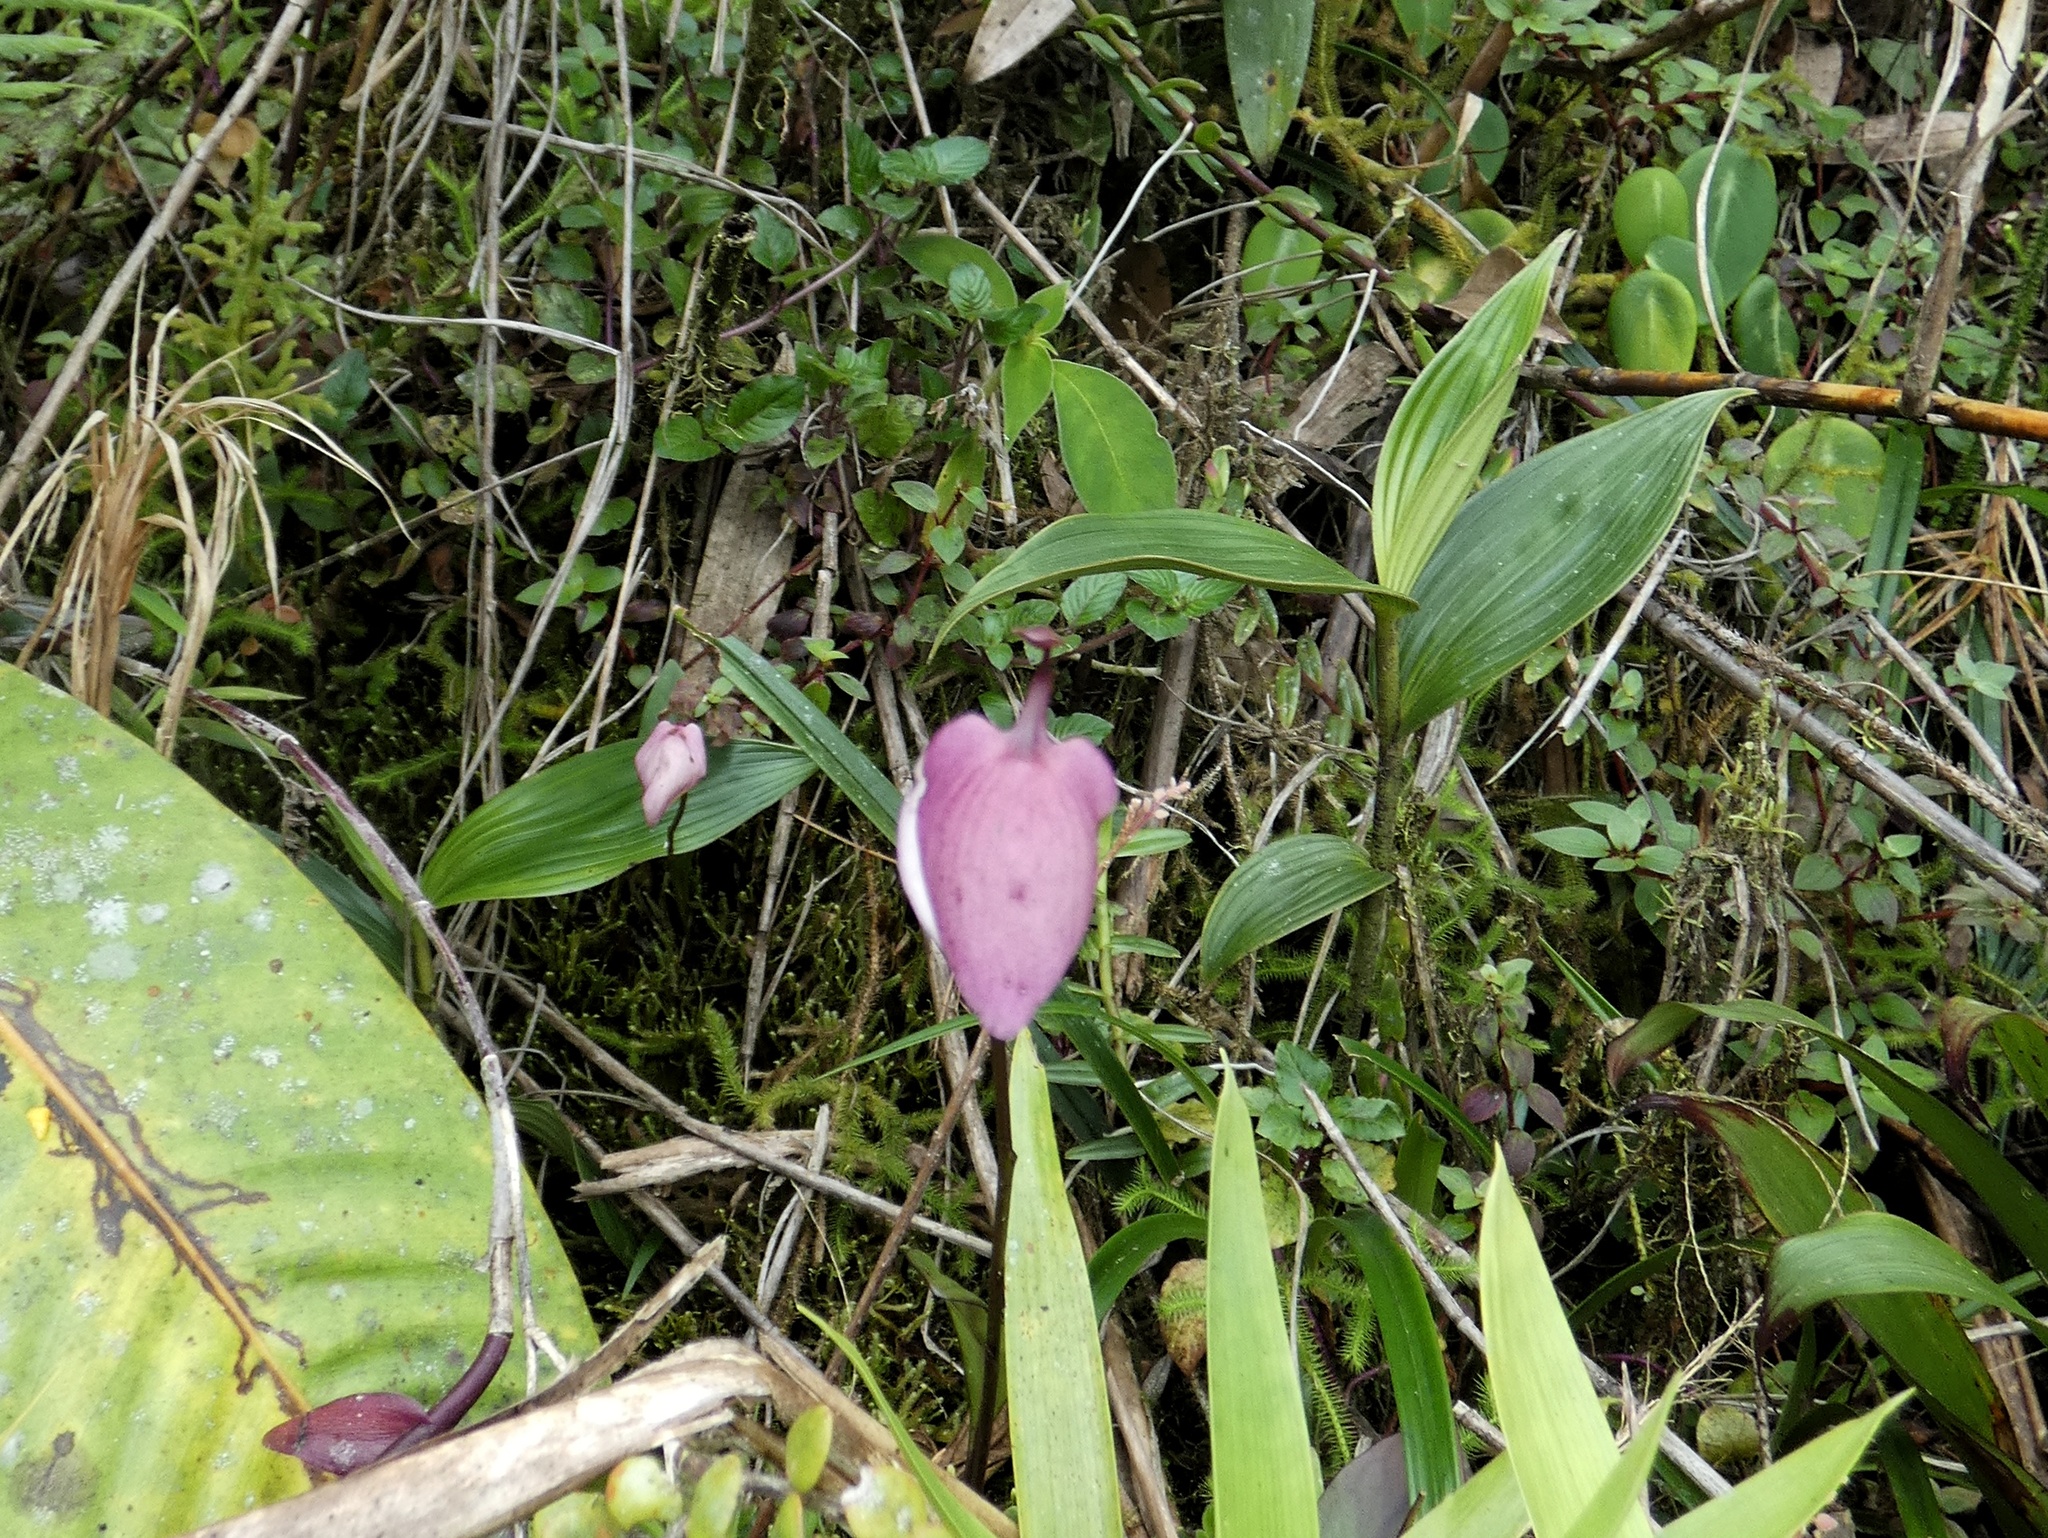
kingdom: Plantae
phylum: Tracheophyta
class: Magnoliopsida
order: Lamiales
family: Lentibulariaceae
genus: Utricularia
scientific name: Utricularia praetermissa
